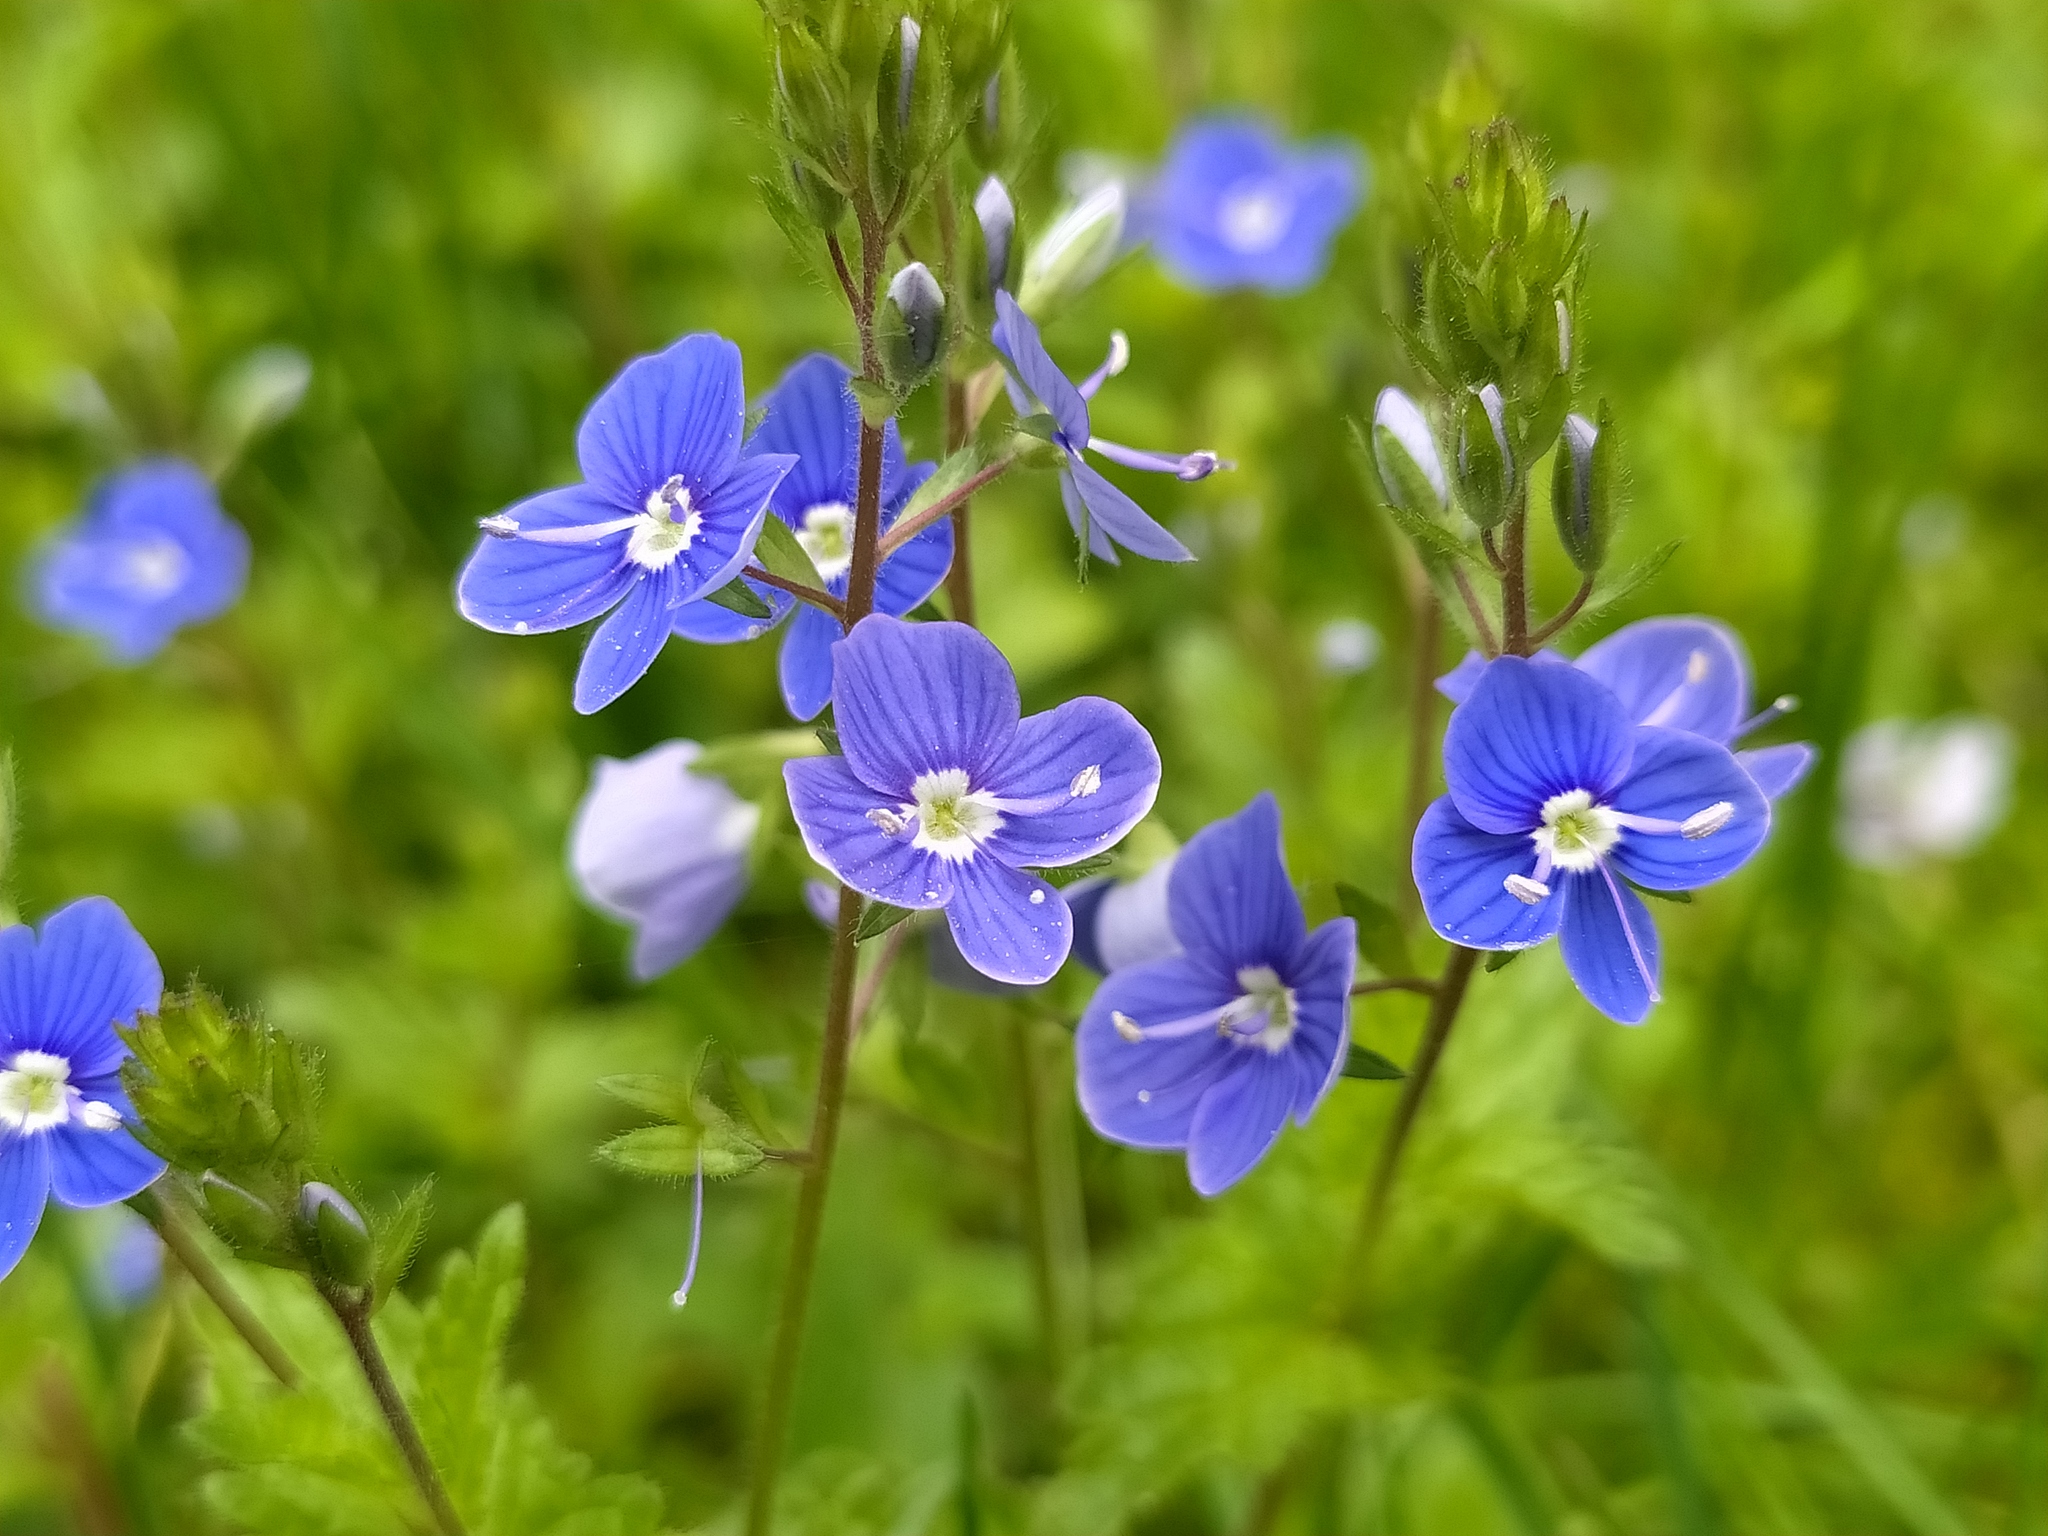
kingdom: Plantae
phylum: Tracheophyta
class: Magnoliopsida
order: Lamiales
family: Plantaginaceae
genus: Veronica
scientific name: Veronica chamaedrys
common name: Germander speedwell
